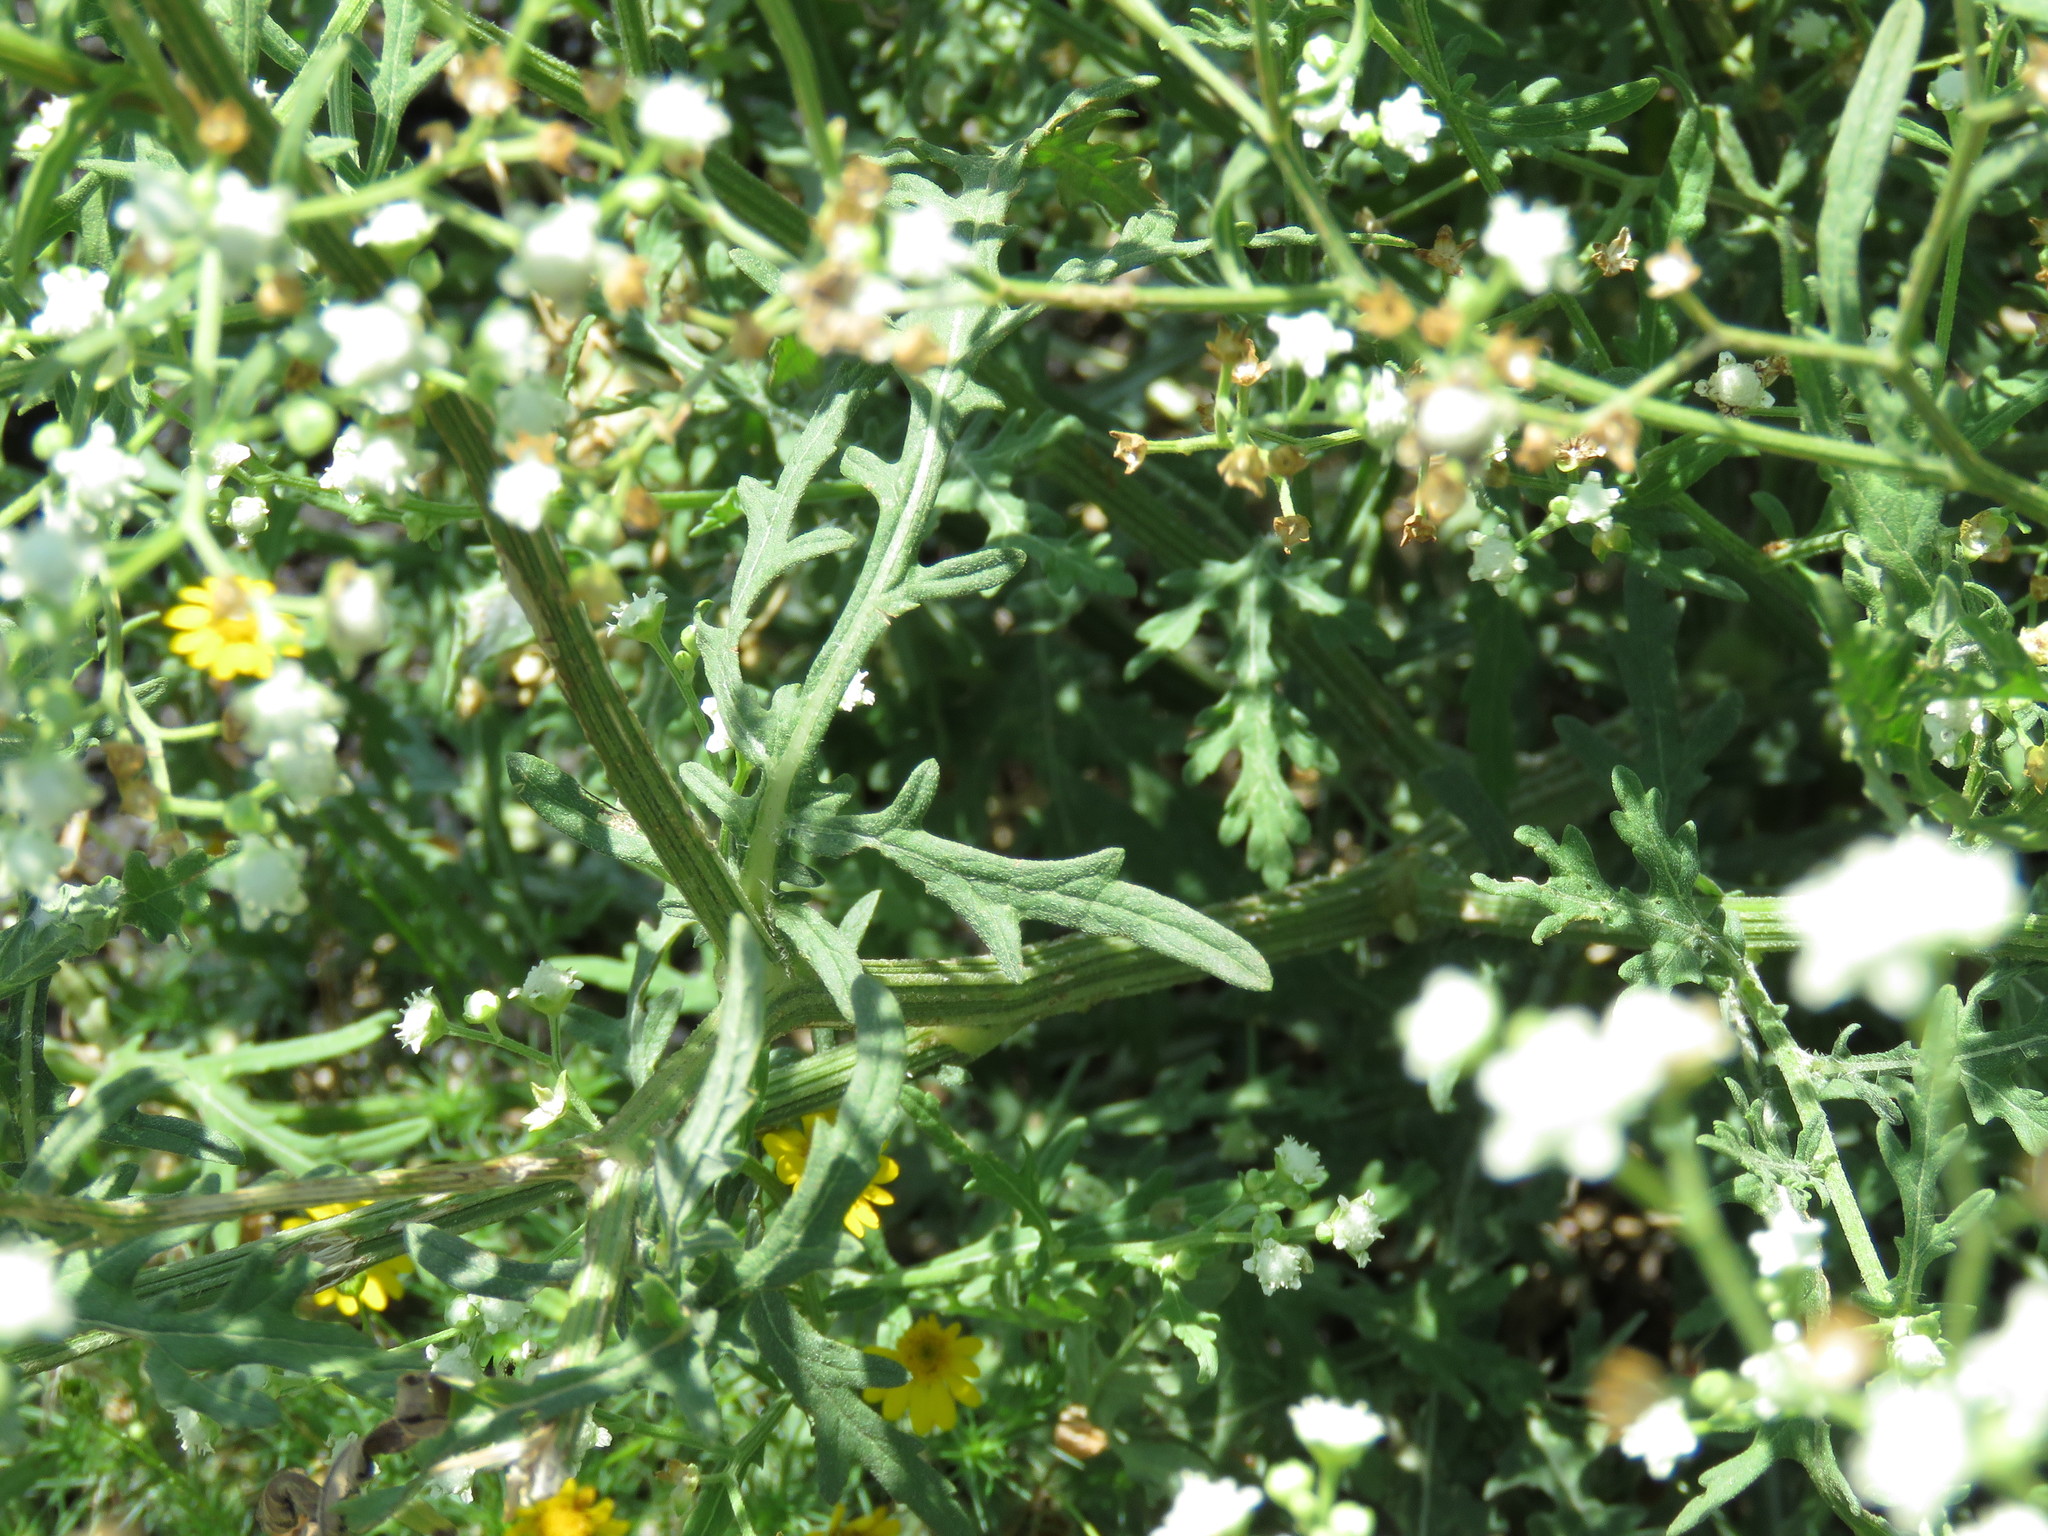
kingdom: Plantae
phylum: Tracheophyta
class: Magnoliopsida
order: Asterales
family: Asteraceae
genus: Parthenium
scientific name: Parthenium confertum
